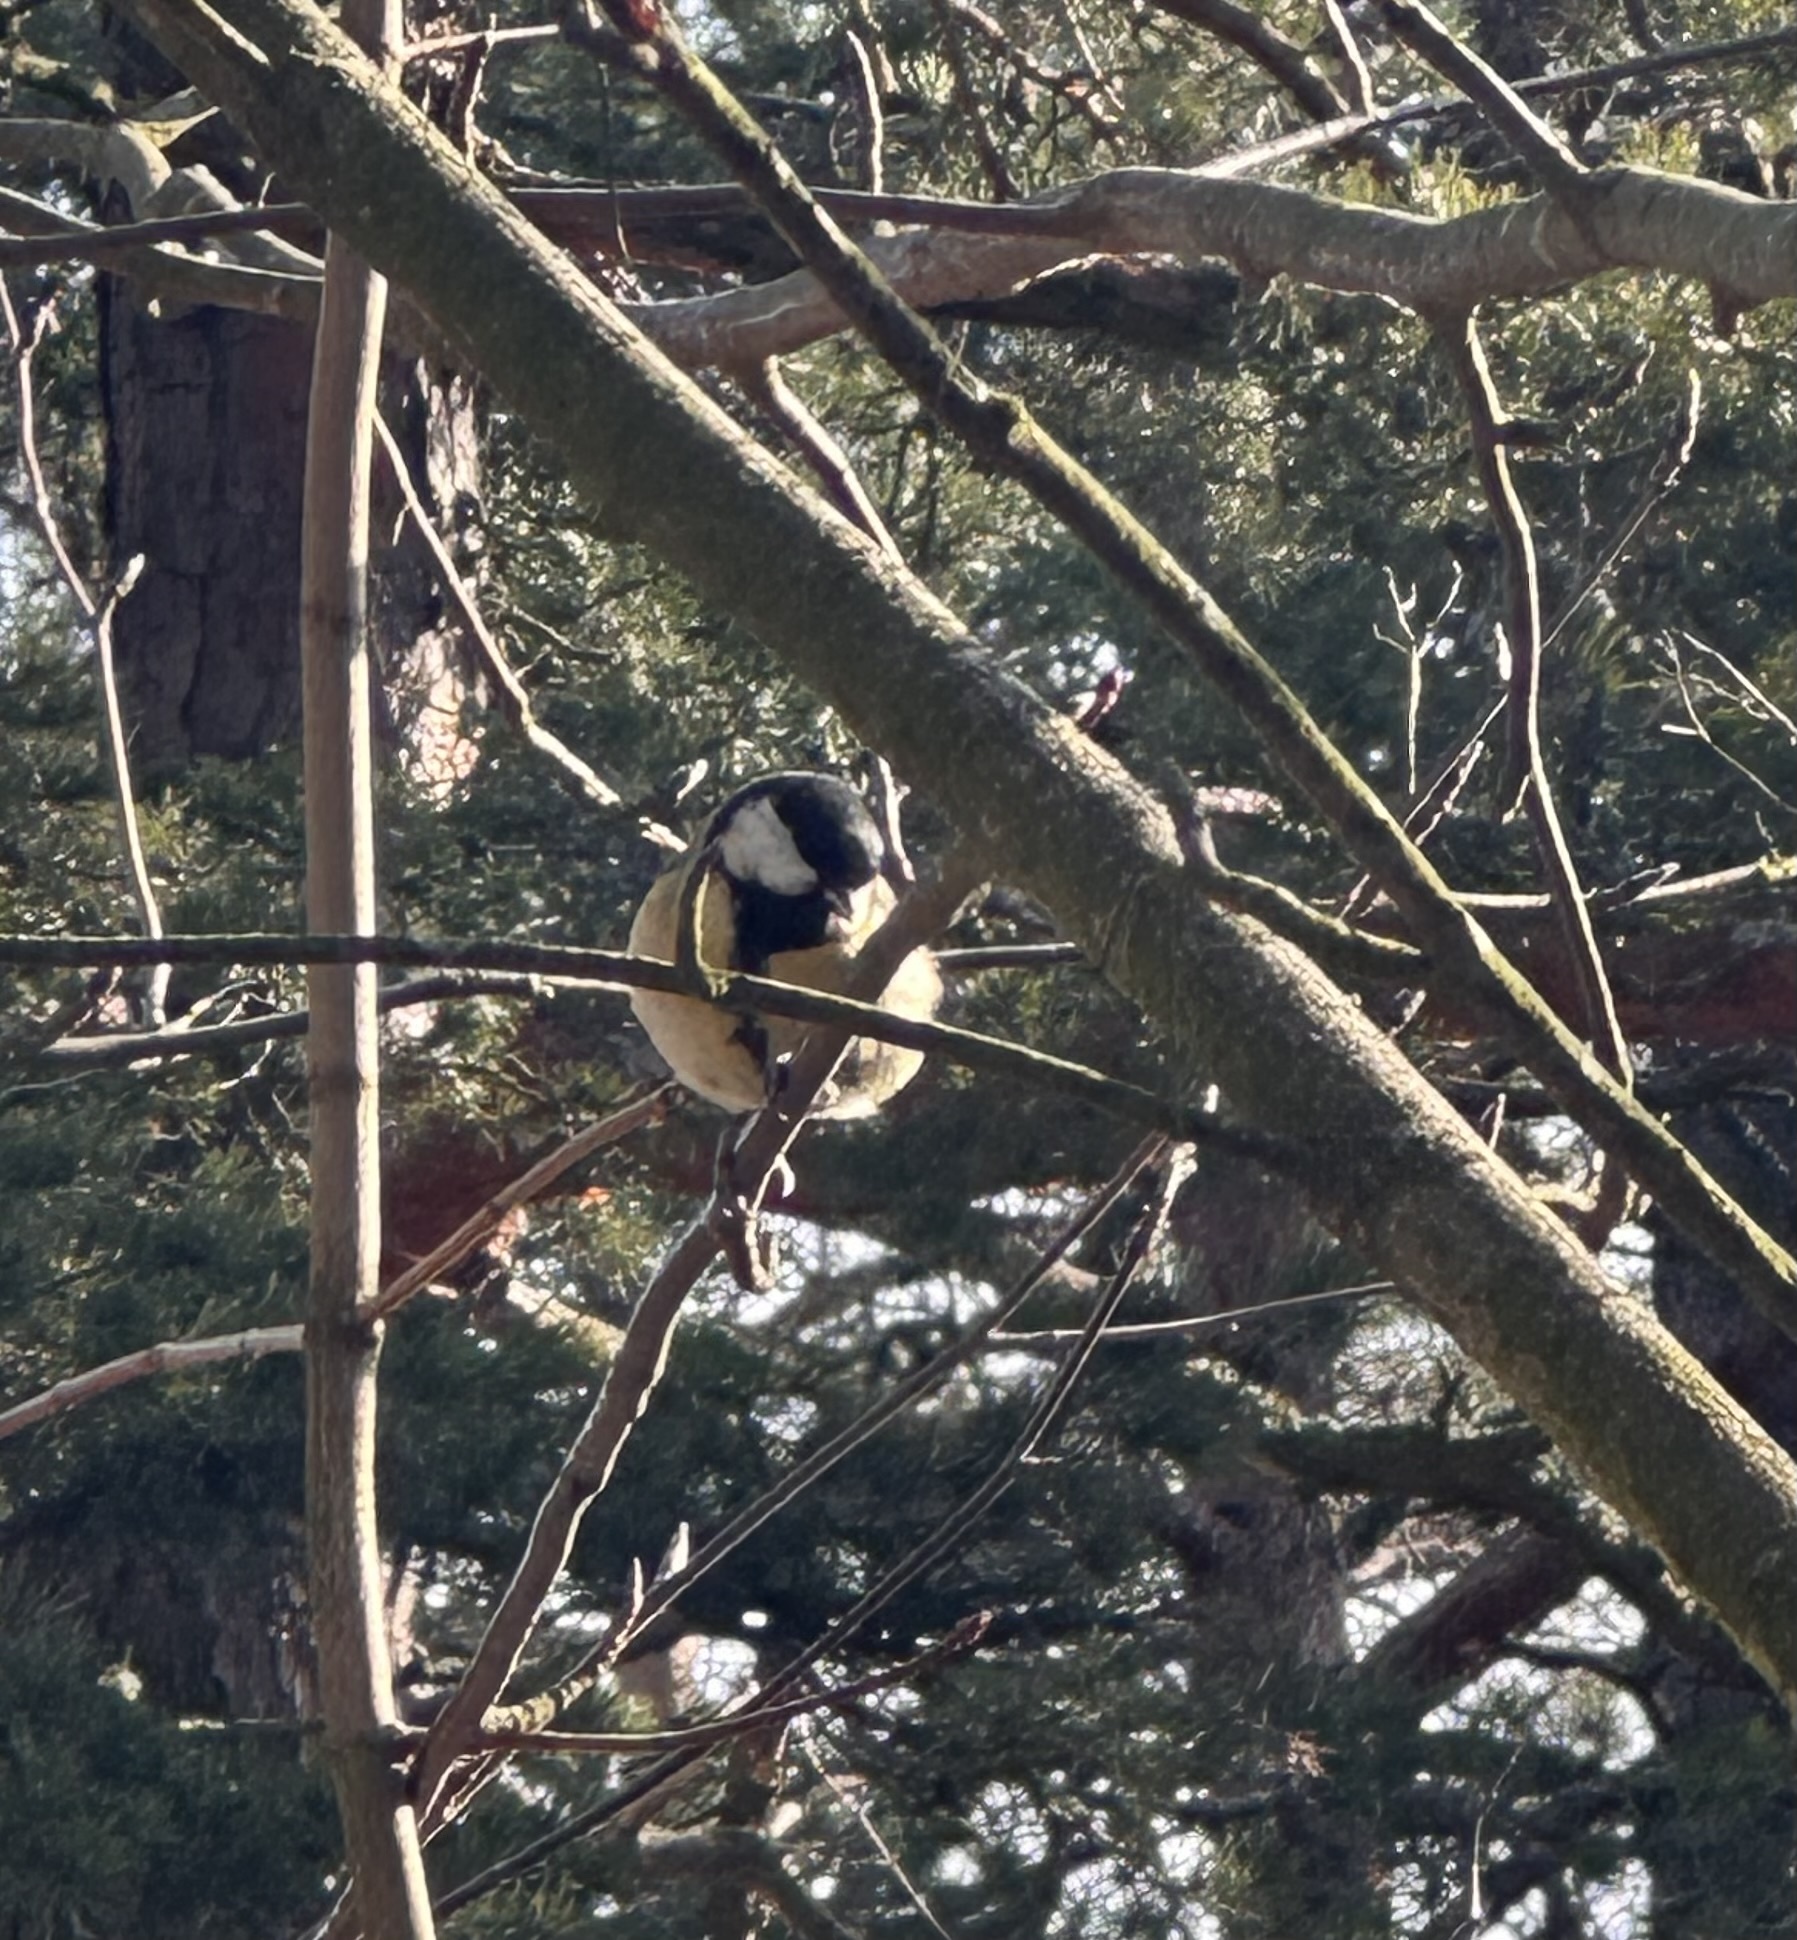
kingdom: Animalia
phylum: Chordata
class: Aves
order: Passeriformes
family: Paridae
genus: Parus
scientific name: Parus major
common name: Great tit
